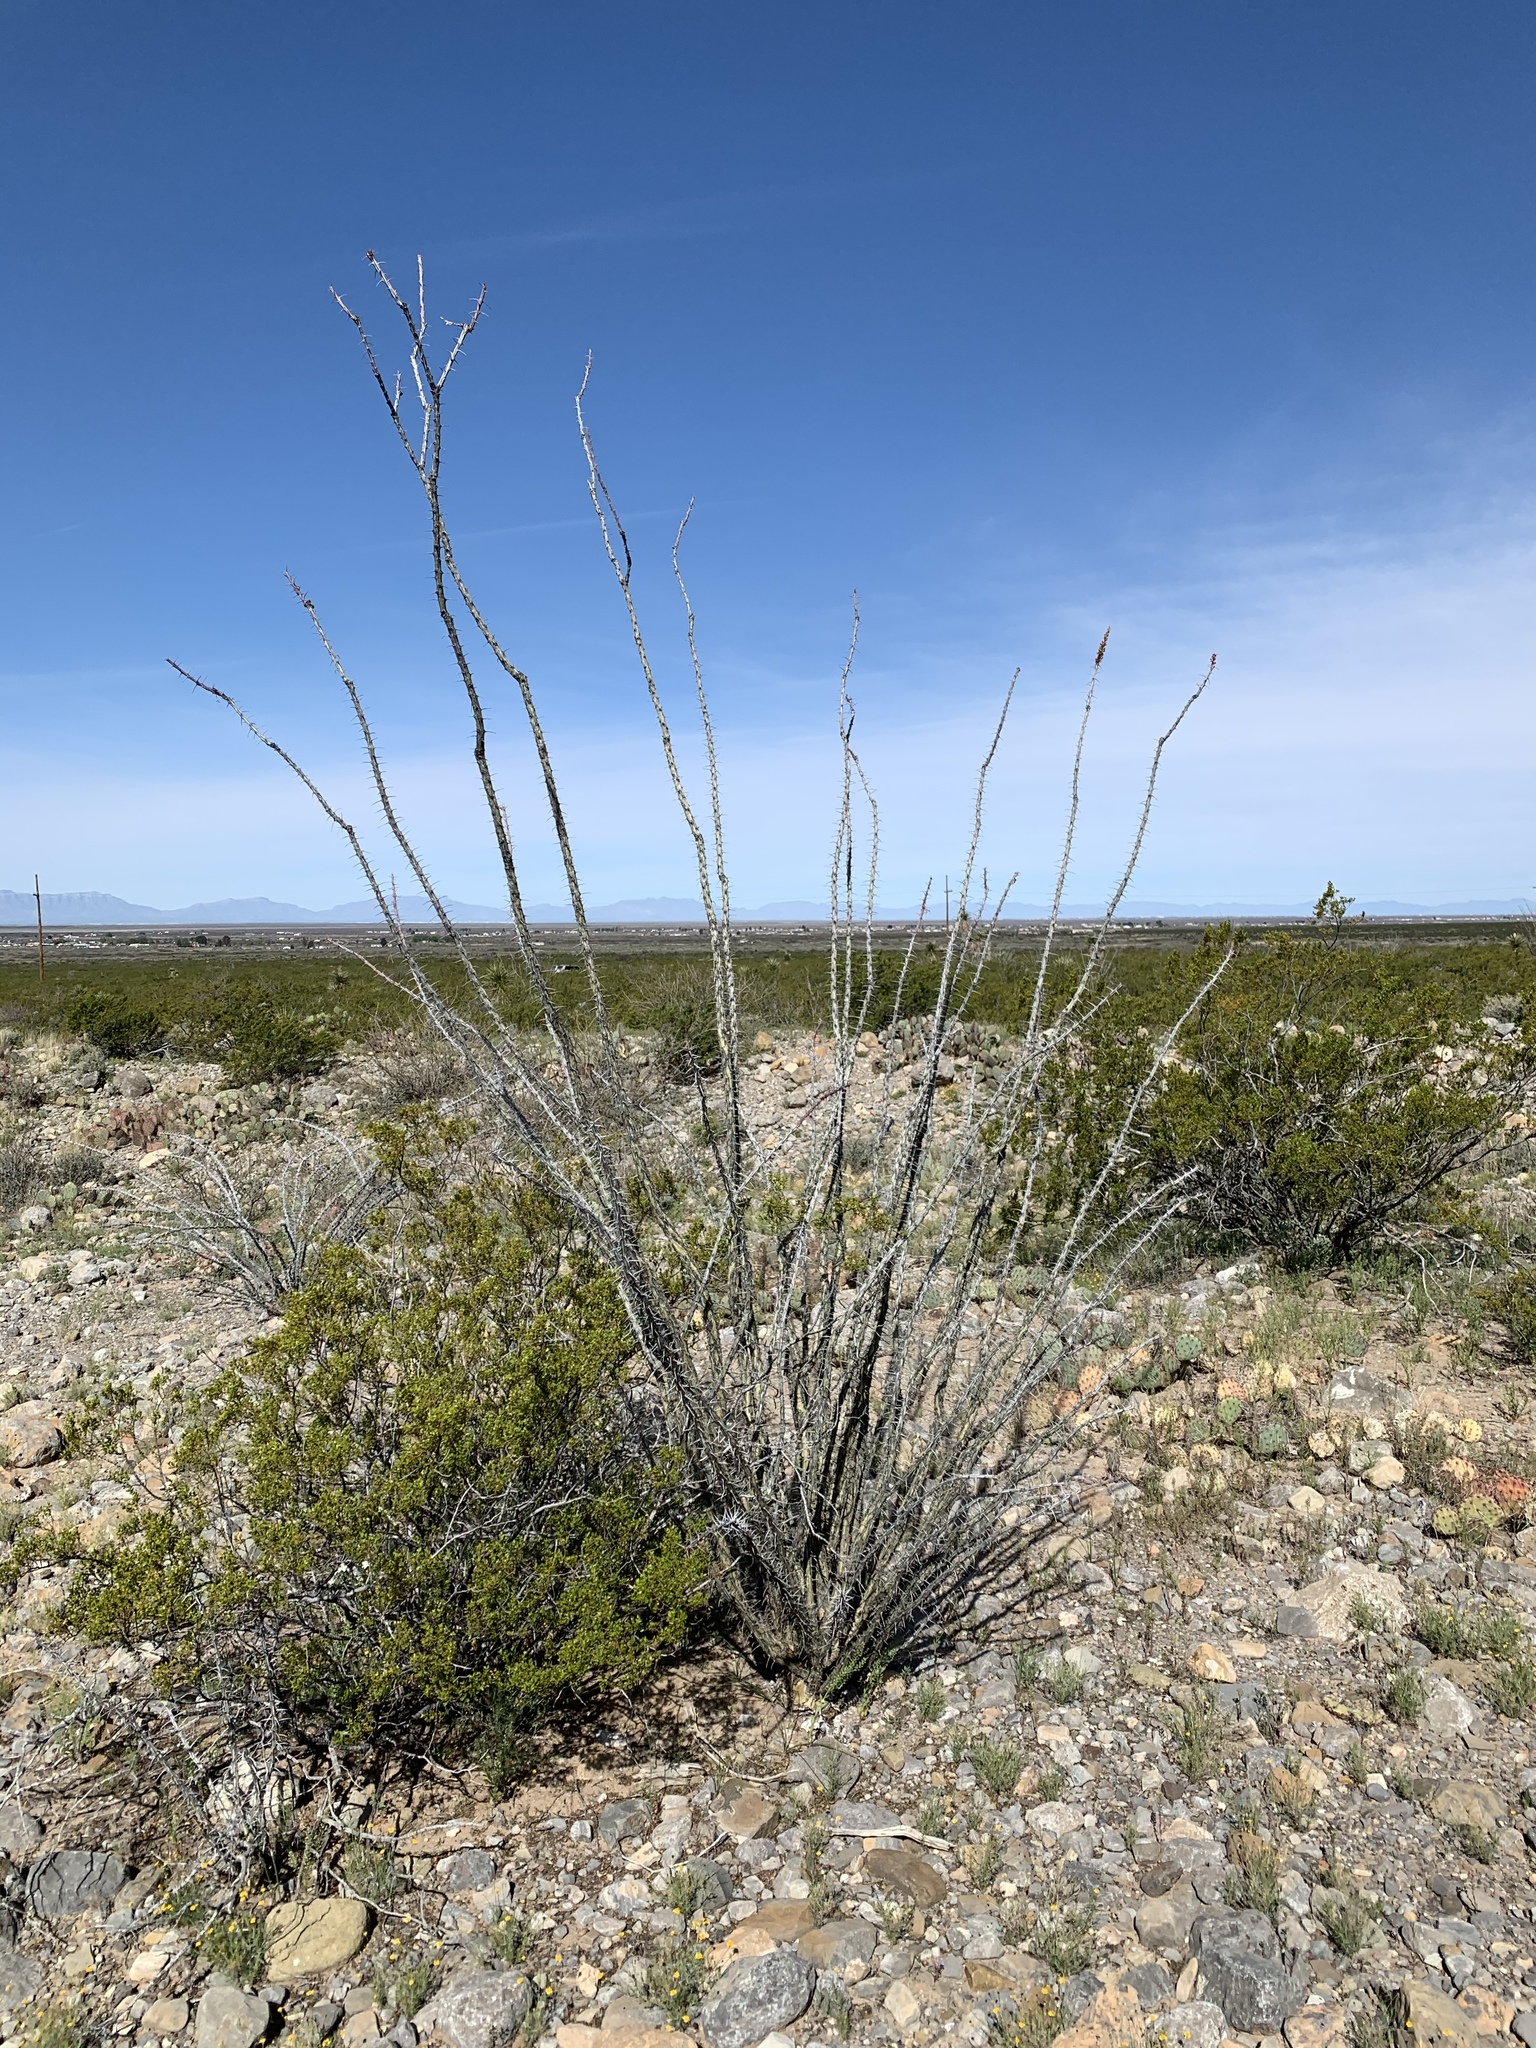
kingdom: Plantae
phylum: Tracheophyta
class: Magnoliopsida
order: Ericales
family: Fouquieriaceae
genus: Fouquieria
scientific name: Fouquieria splendens
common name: Vine-cactus
